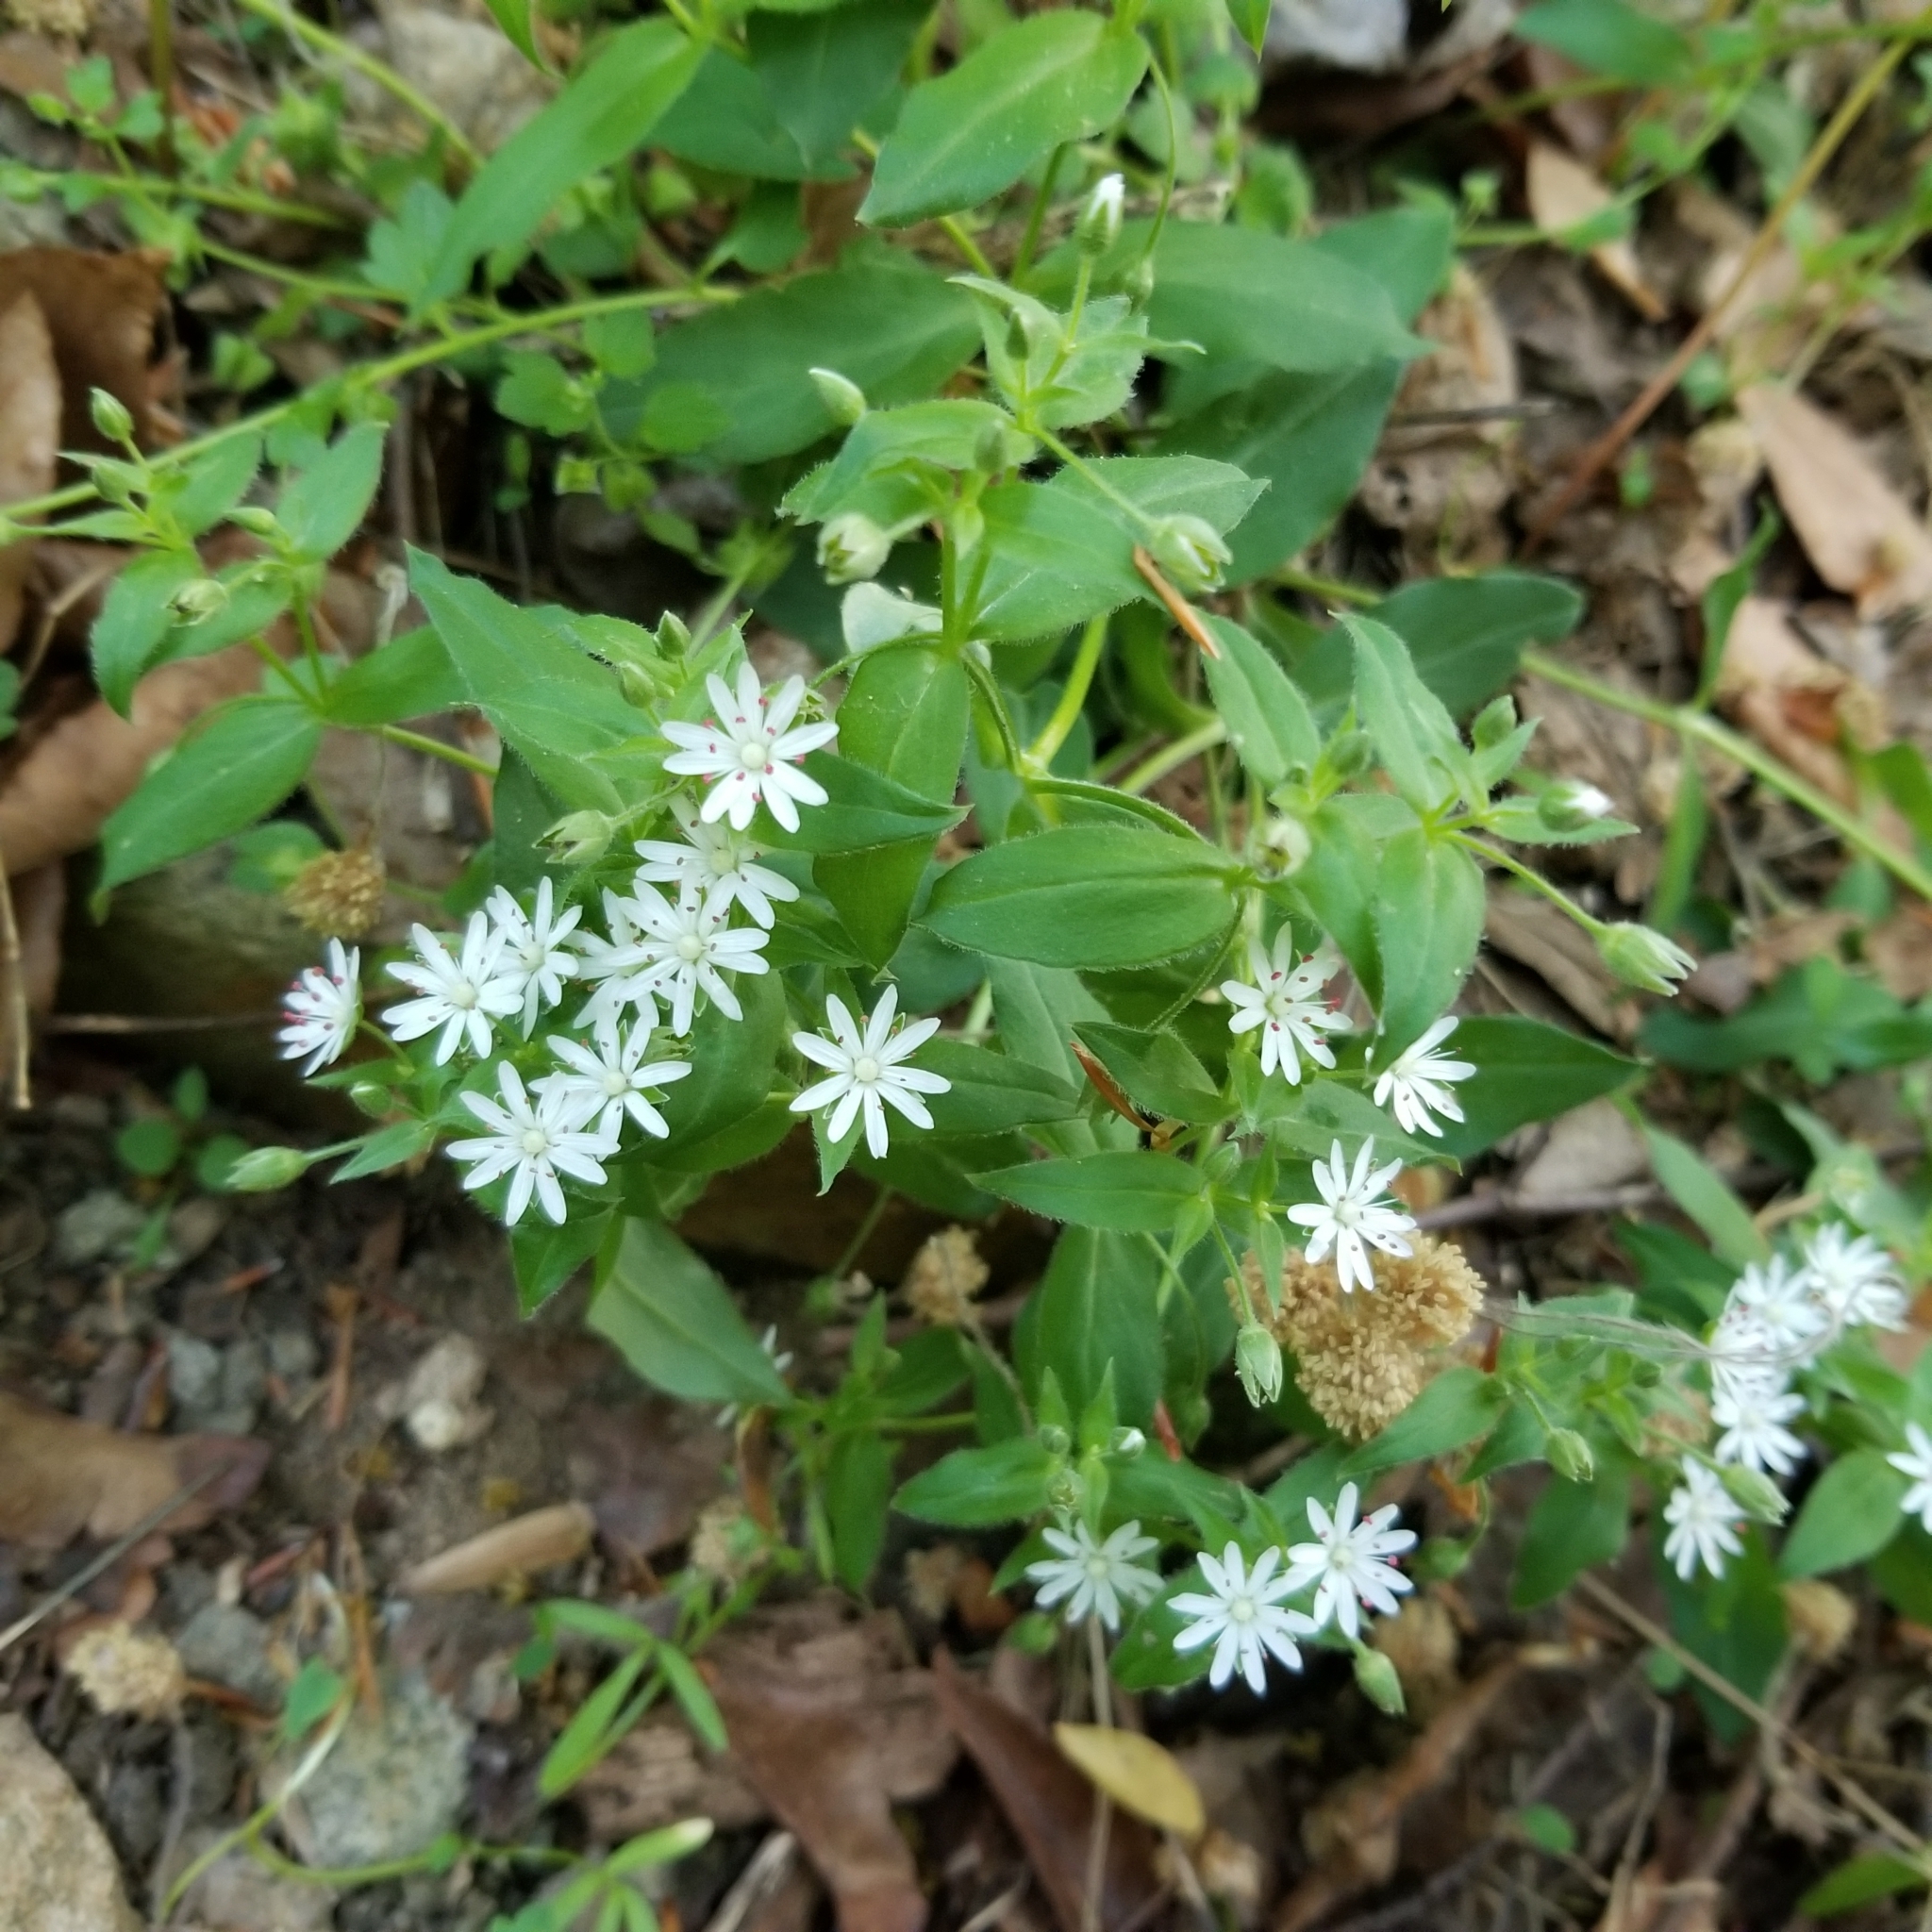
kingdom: Plantae
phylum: Tracheophyta
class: Magnoliopsida
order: Caryophyllales
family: Caryophyllaceae
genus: Stellaria
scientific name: Stellaria pubera
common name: Star chickweed
